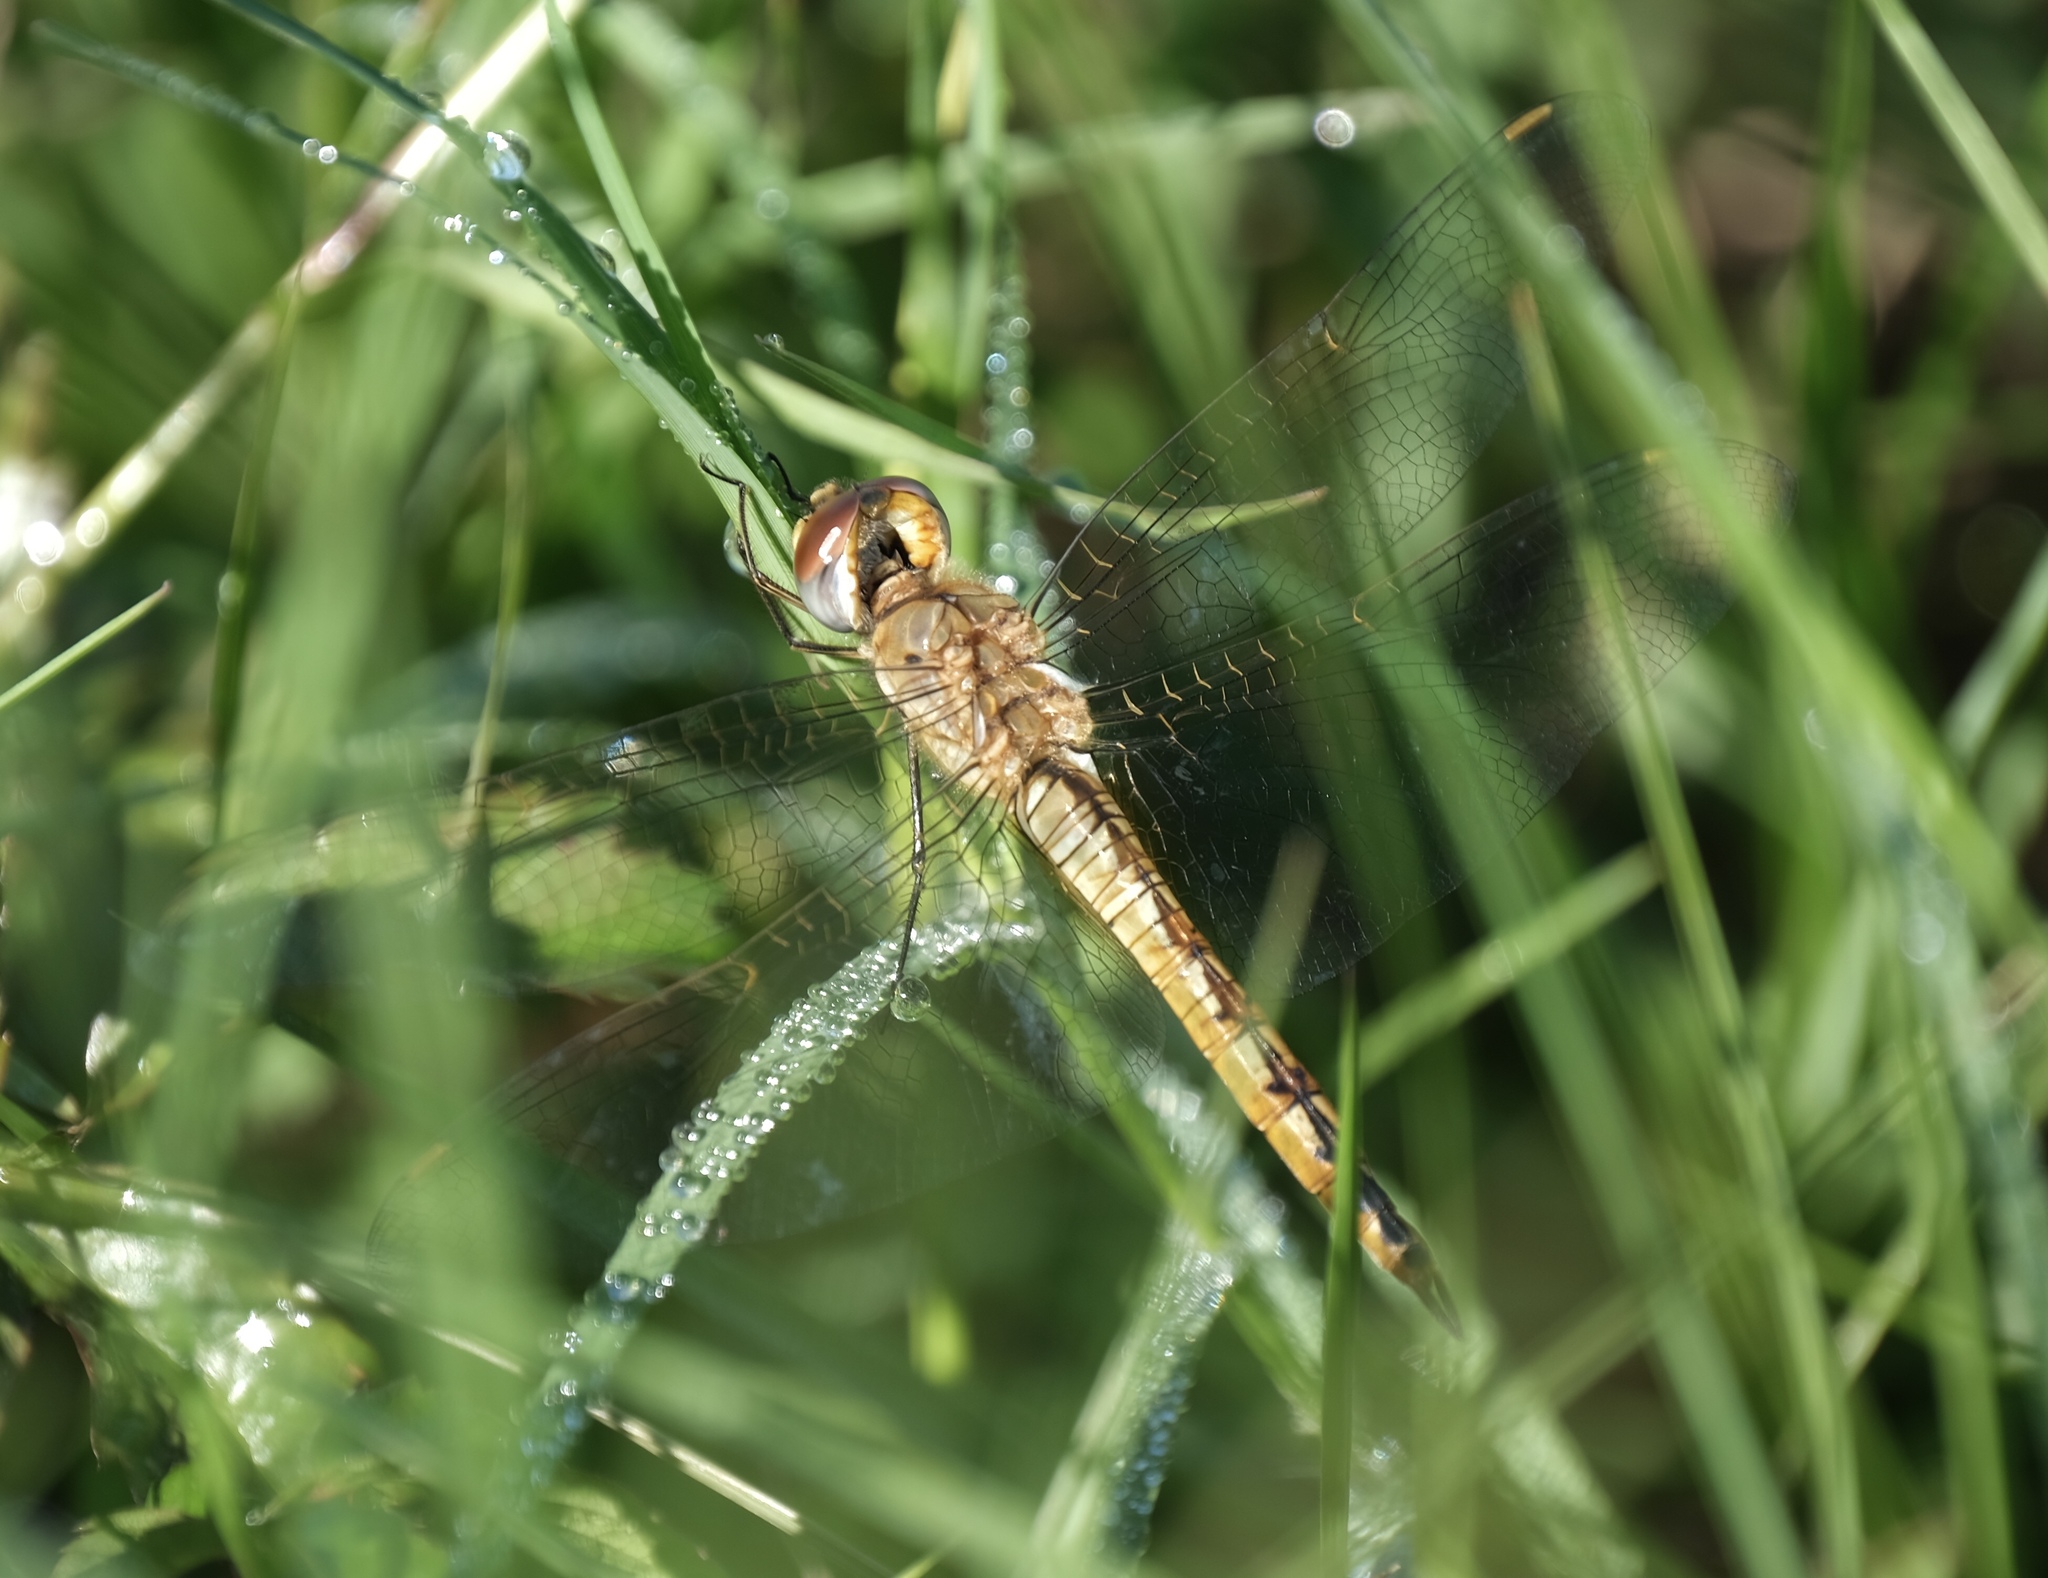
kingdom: Animalia
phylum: Arthropoda
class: Insecta
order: Odonata
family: Libellulidae
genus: Pantala
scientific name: Pantala flavescens
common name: Wandering glider
